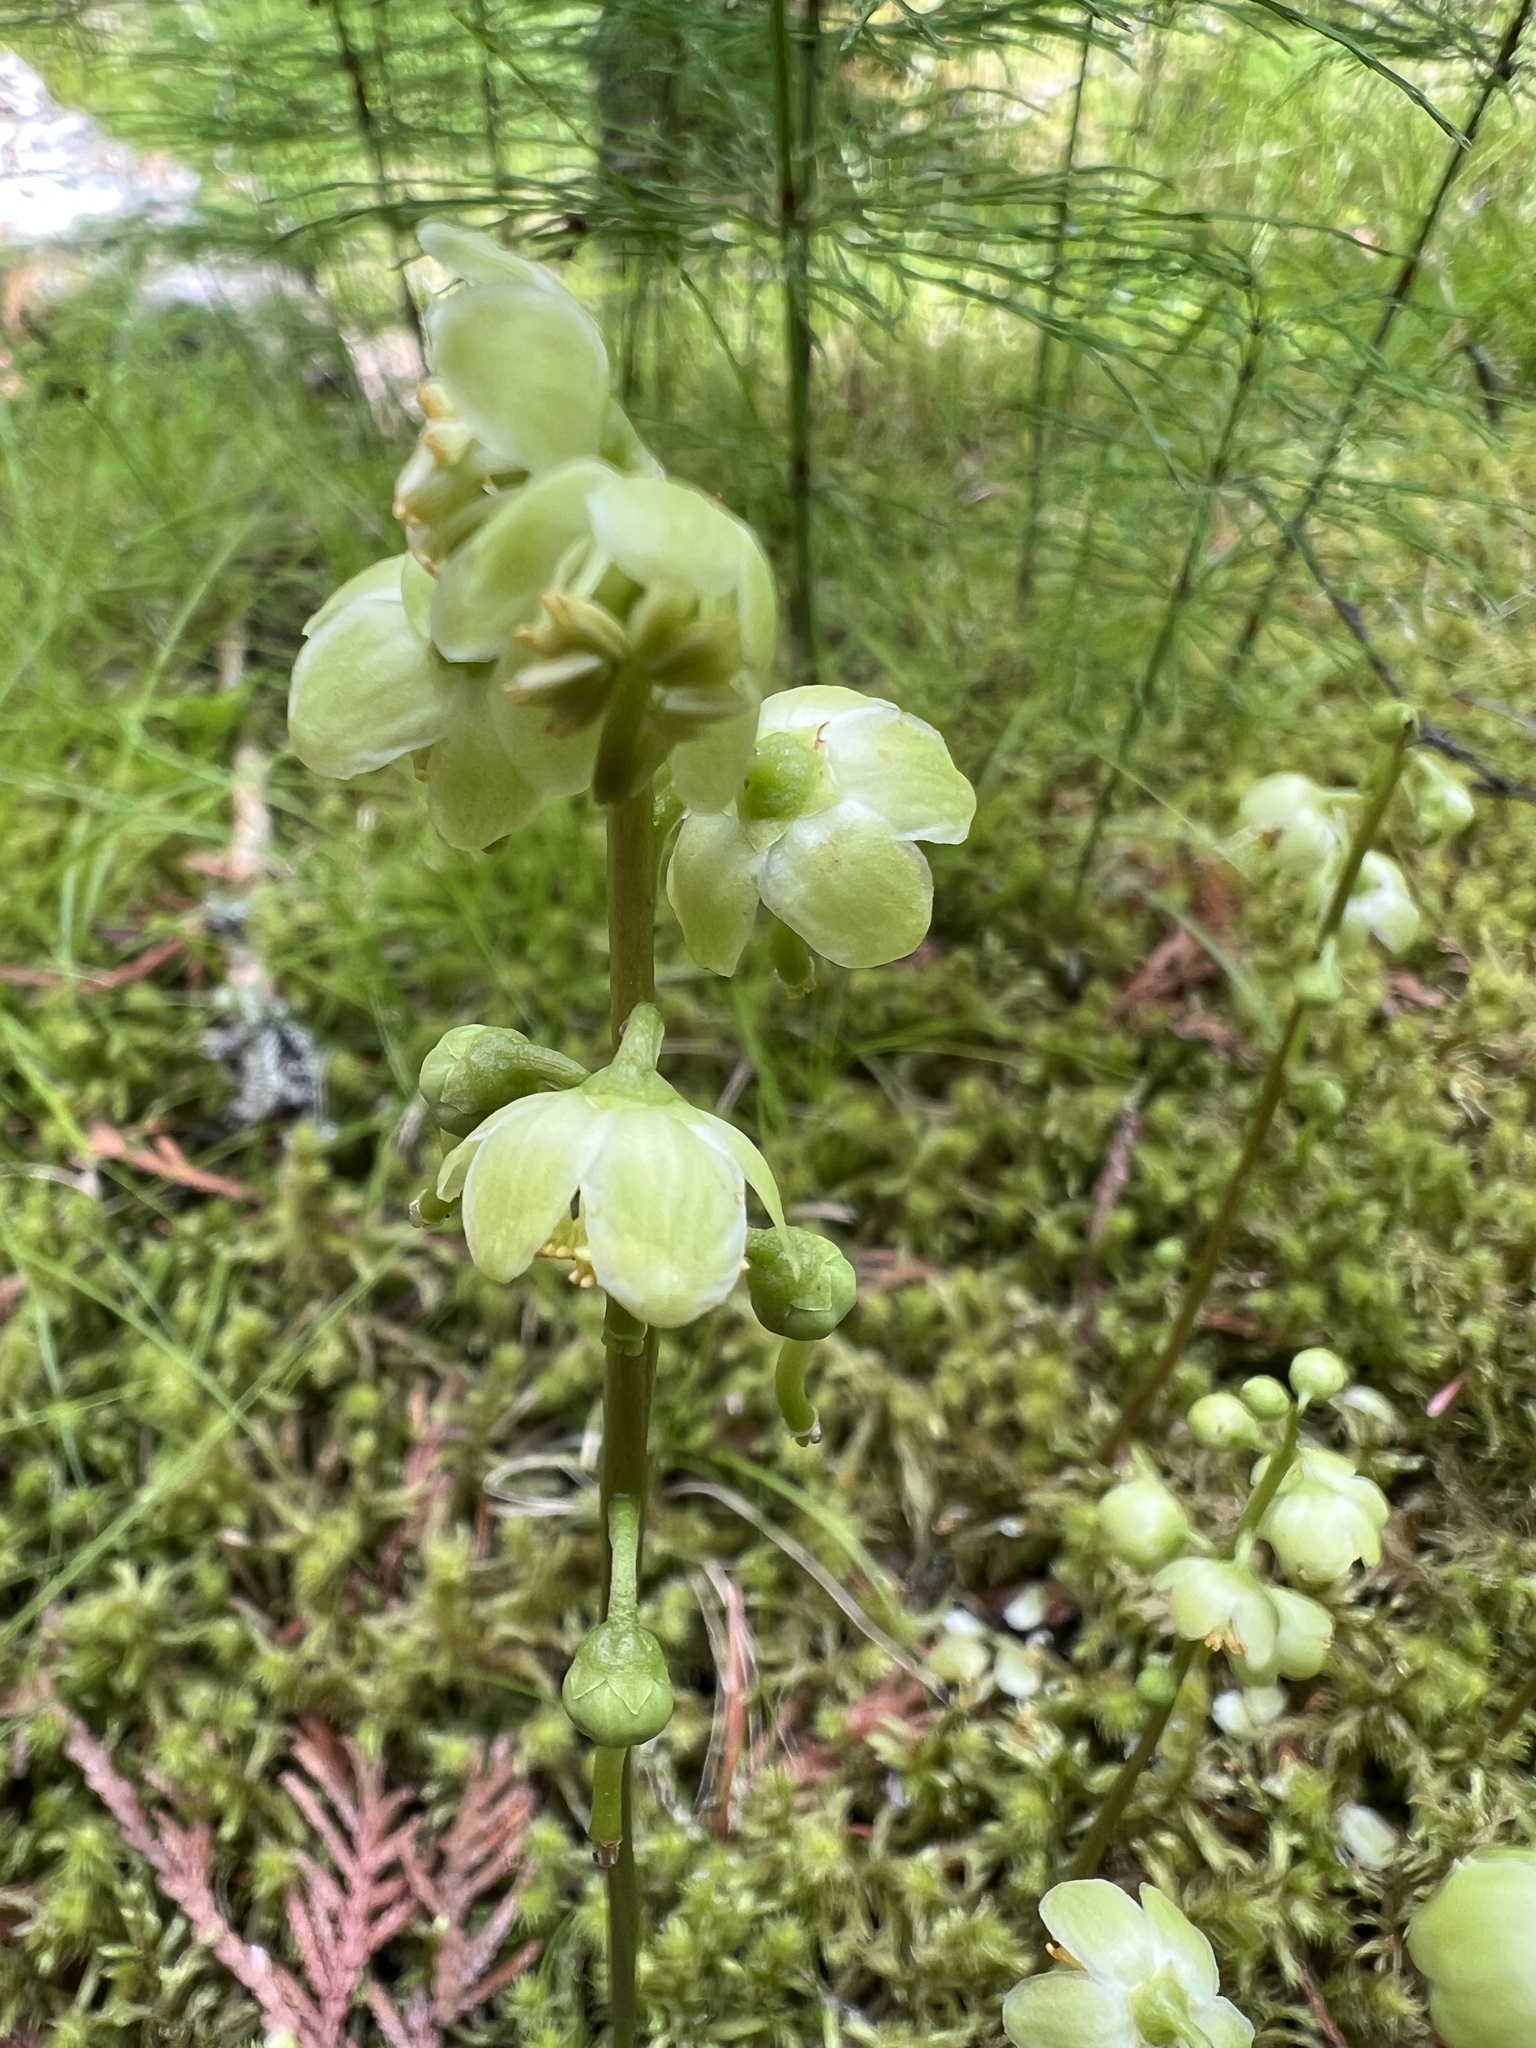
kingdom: Plantae
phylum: Tracheophyta
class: Magnoliopsida
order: Ericales
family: Ericaceae
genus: Pyrola
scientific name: Pyrola chlorantha
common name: Green wintergreen
